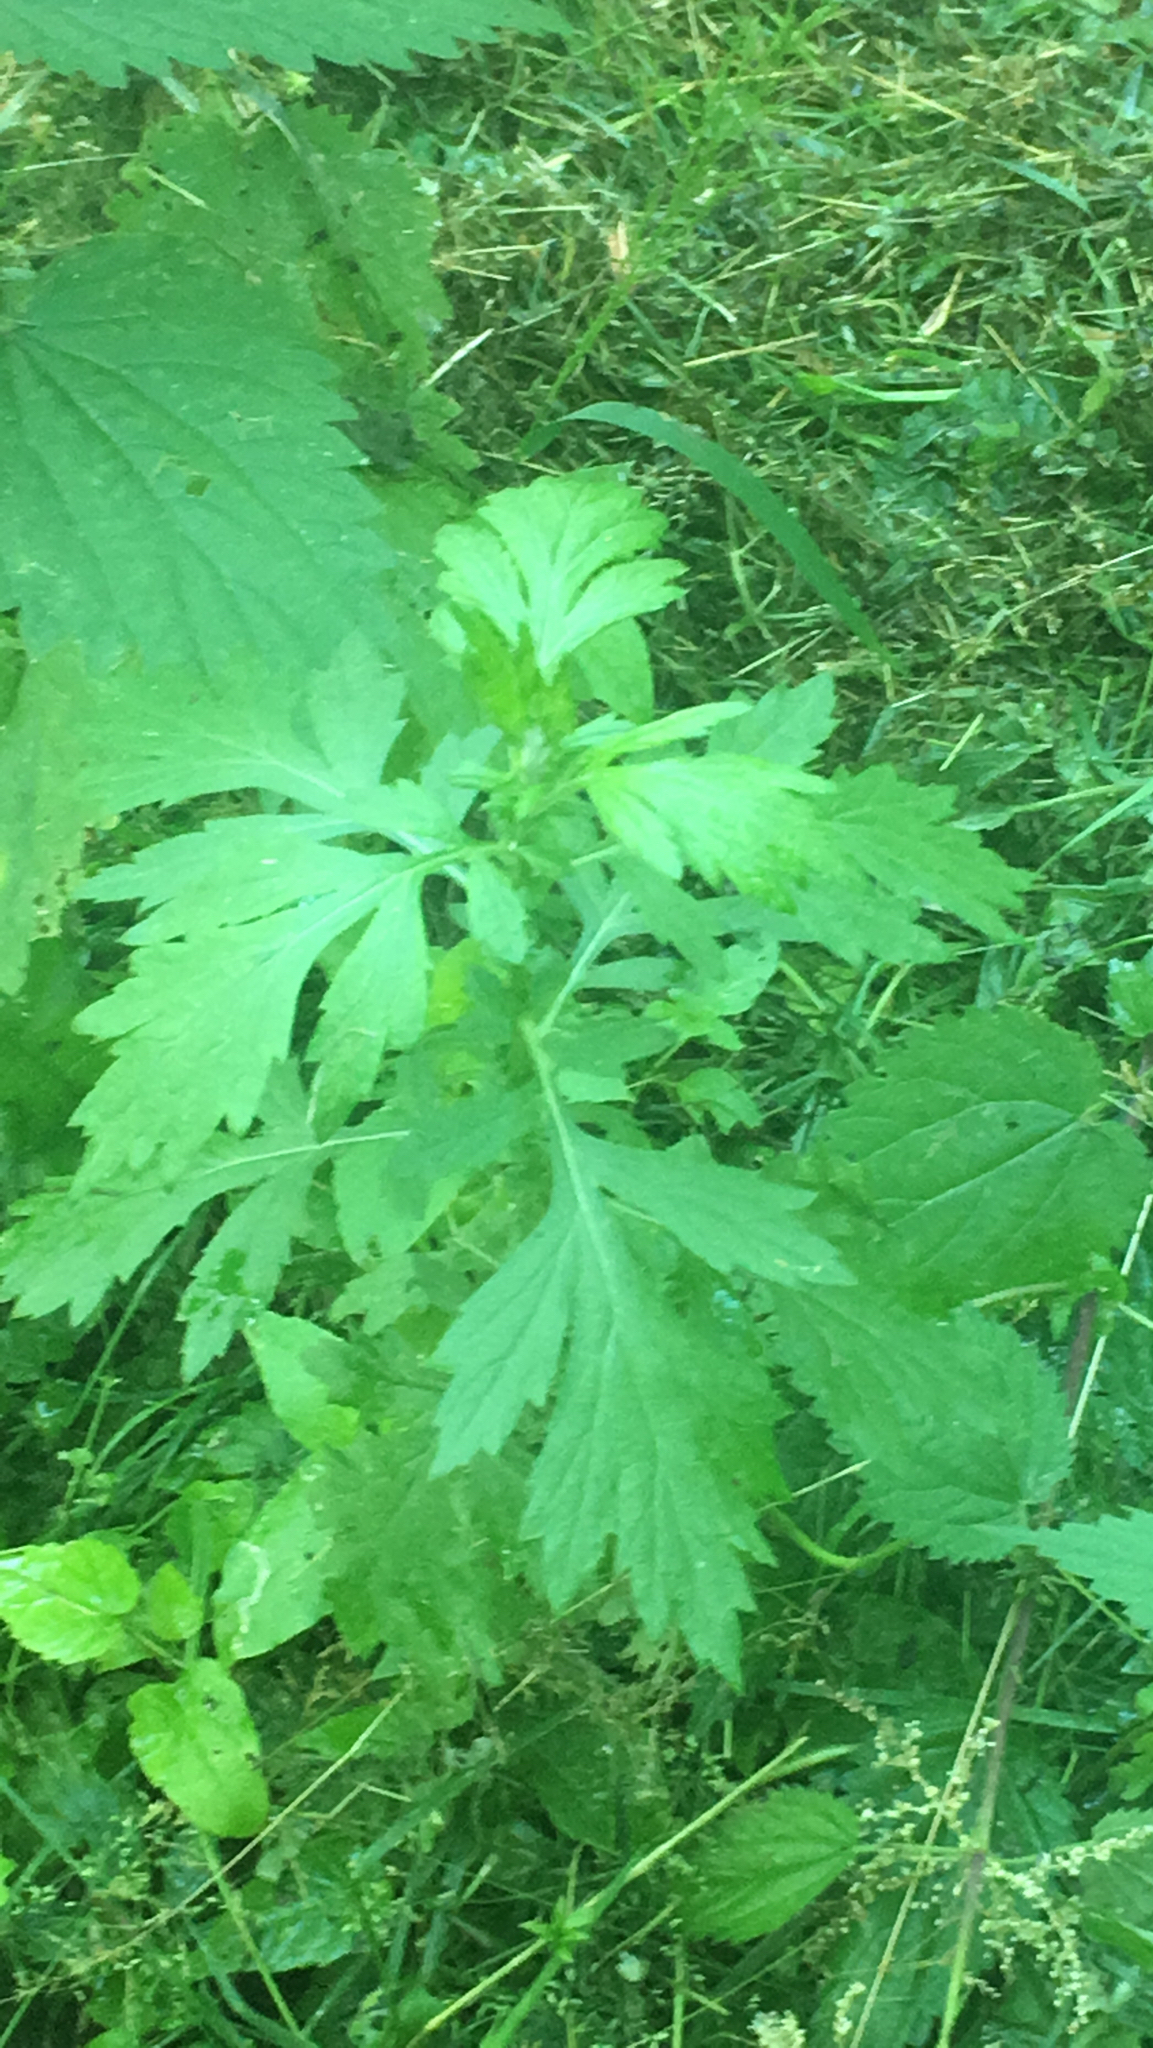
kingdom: Plantae
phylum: Tracheophyta
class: Magnoliopsida
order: Asterales
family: Asteraceae
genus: Artemisia
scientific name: Artemisia vulgaris
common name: Mugwort
